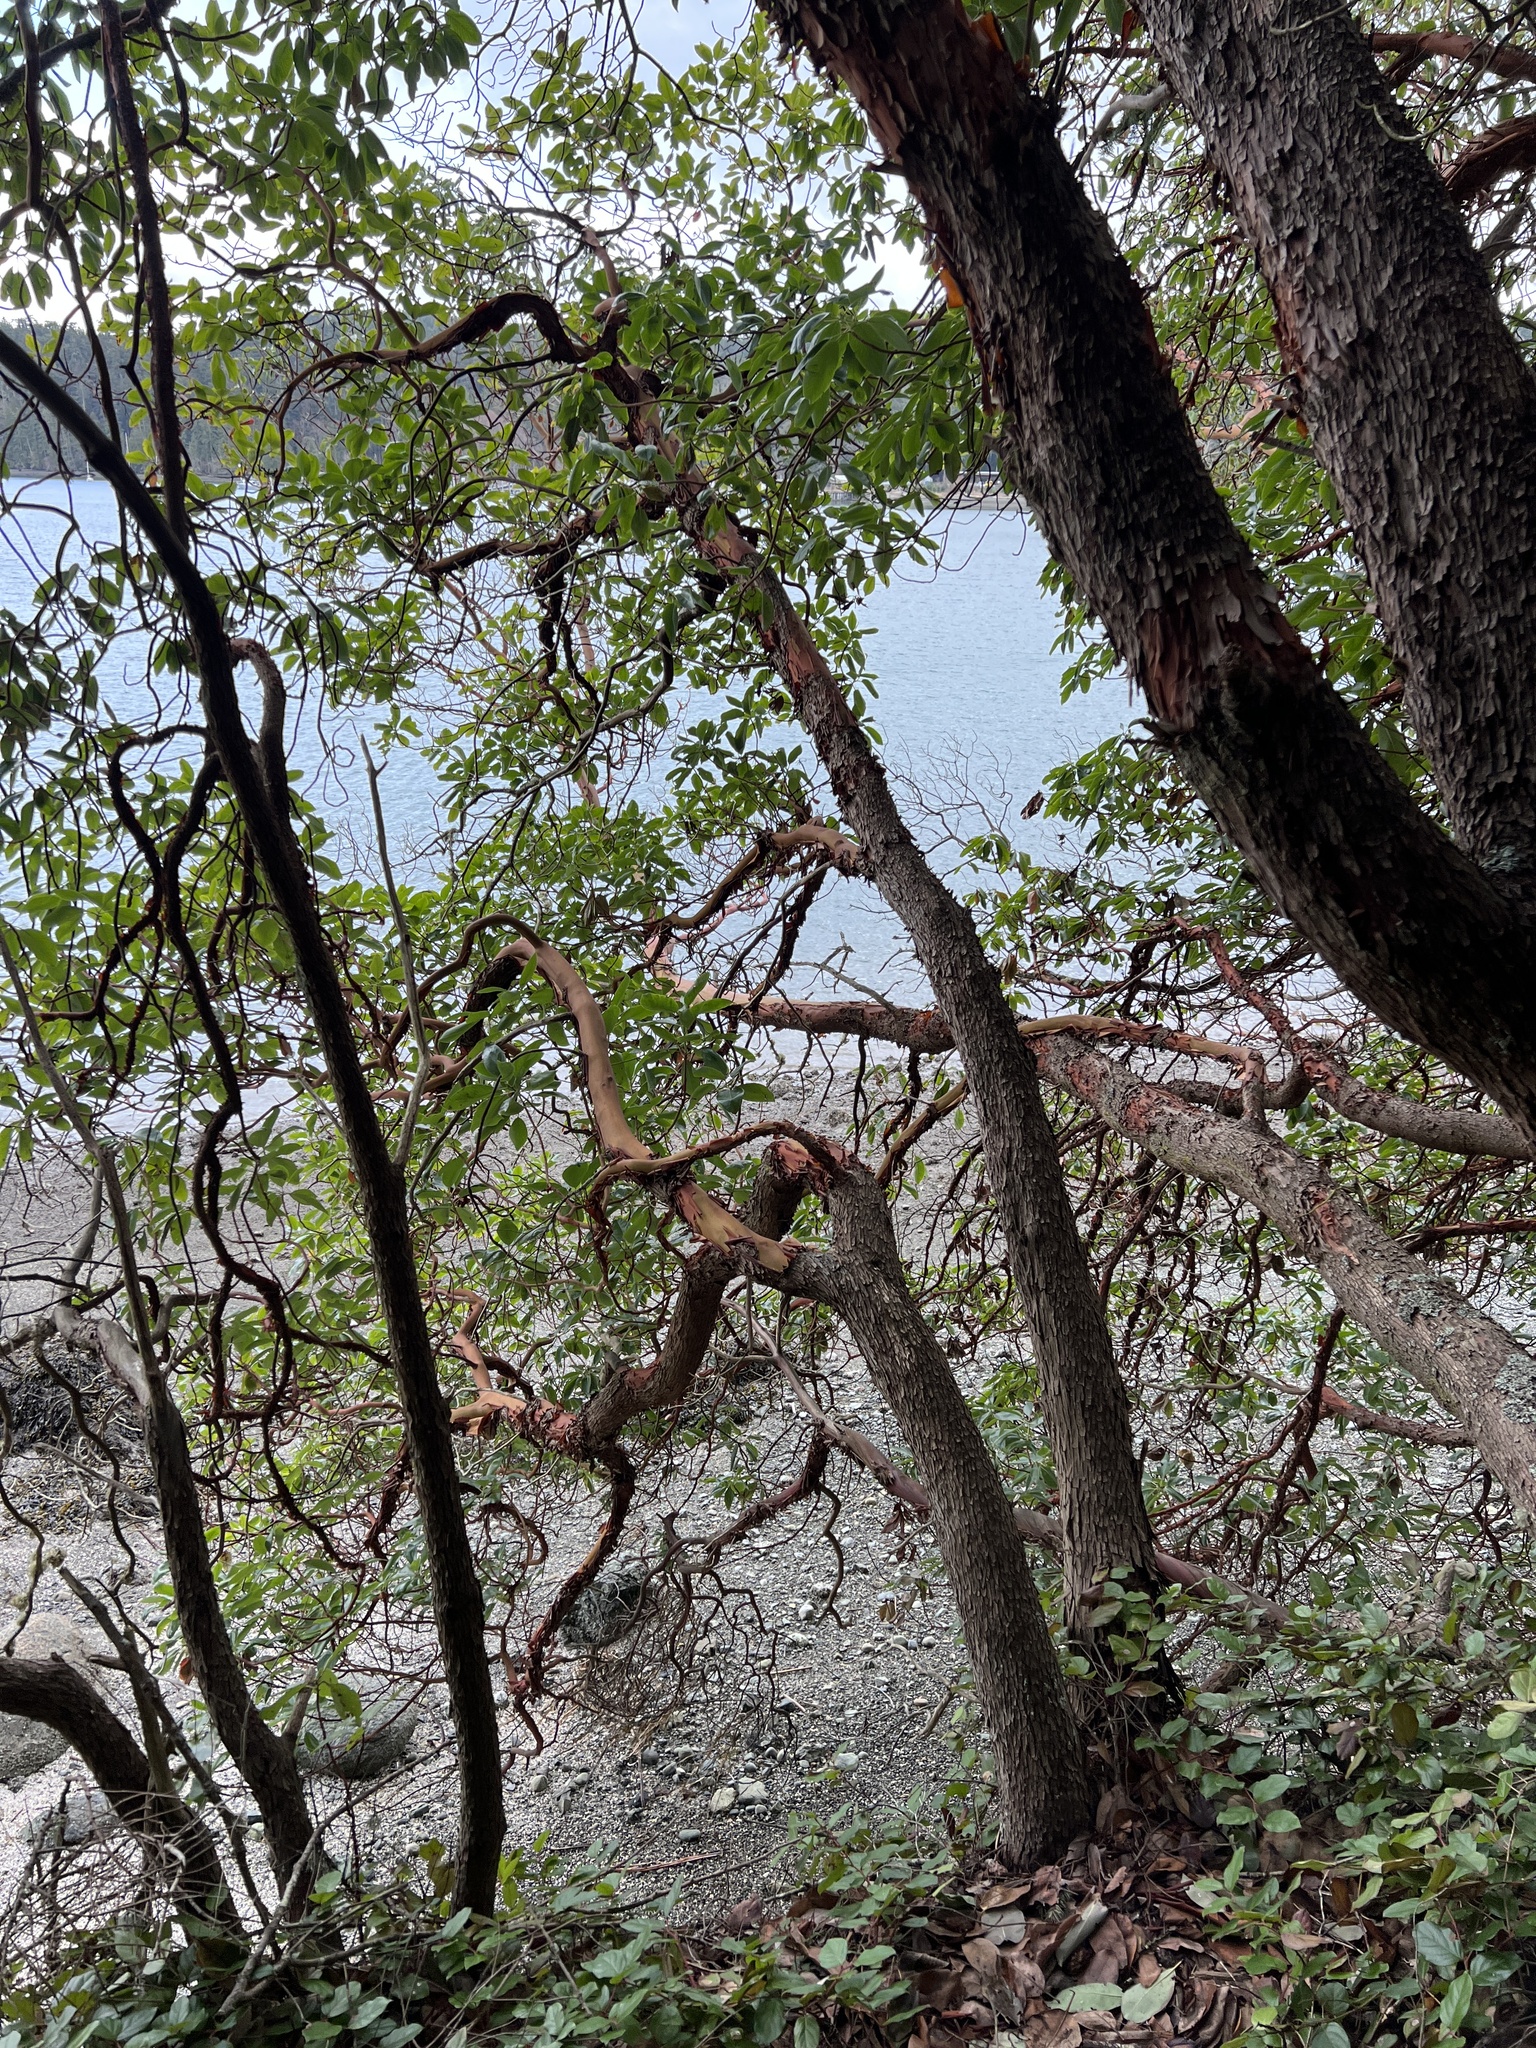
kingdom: Plantae
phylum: Tracheophyta
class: Magnoliopsida
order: Ericales
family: Ericaceae
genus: Arbutus
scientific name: Arbutus menziesii
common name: Pacific madrone
